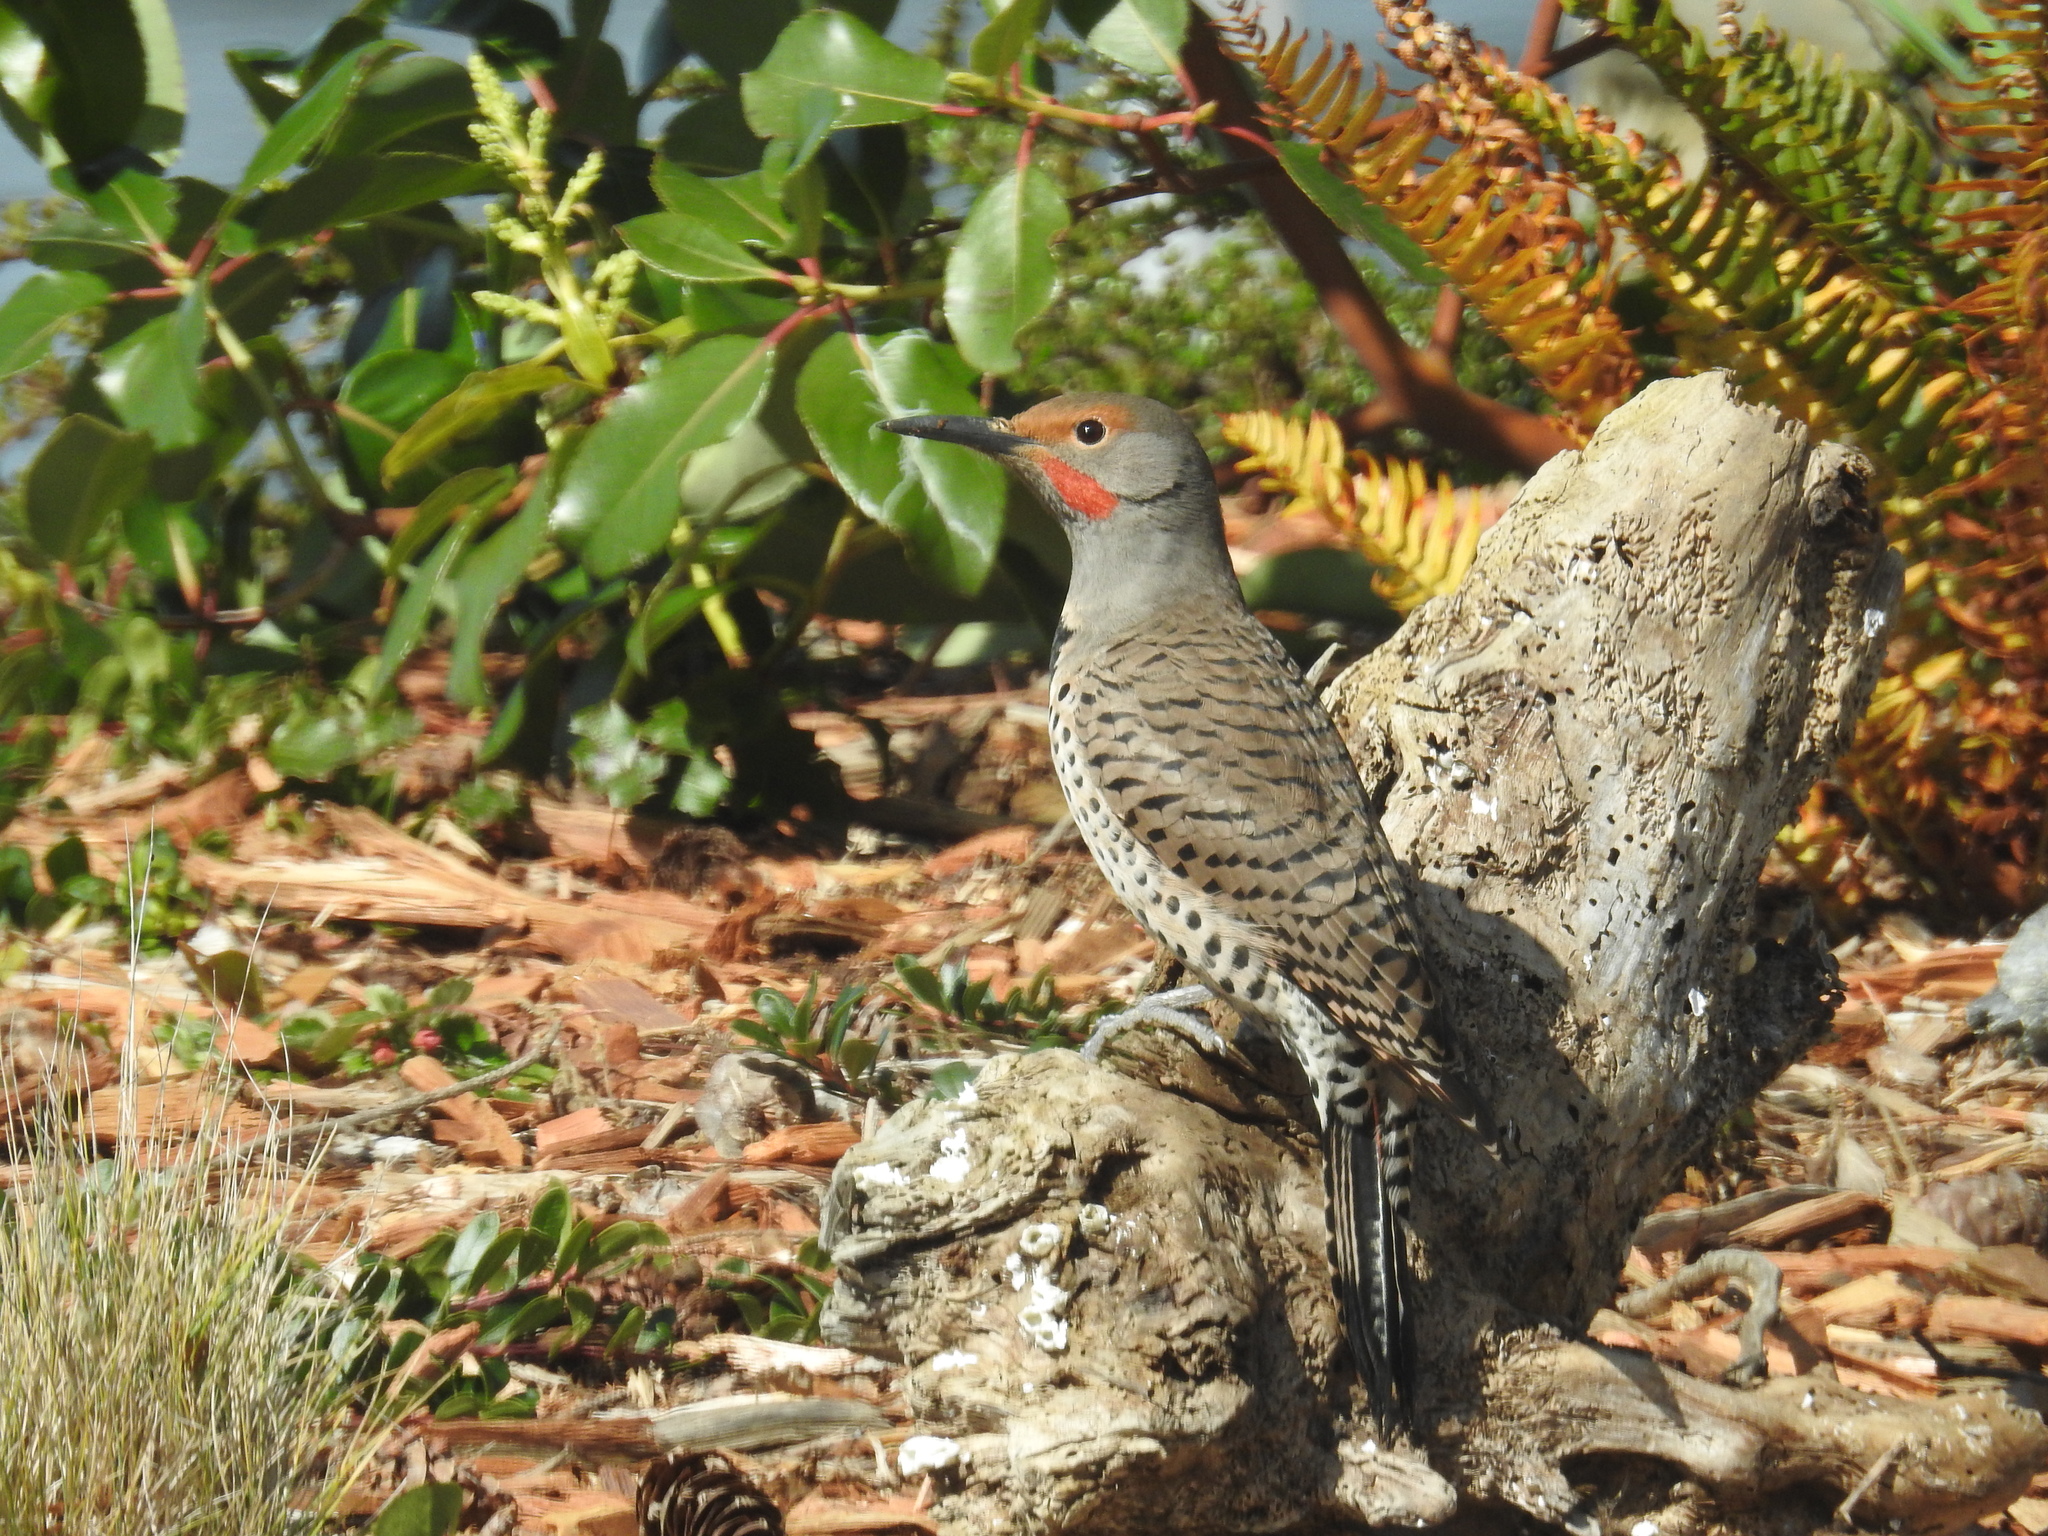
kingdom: Animalia
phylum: Chordata
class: Aves
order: Piciformes
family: Picidae
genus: Colaptes
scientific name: Colaptes auratus
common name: Northern flicker
